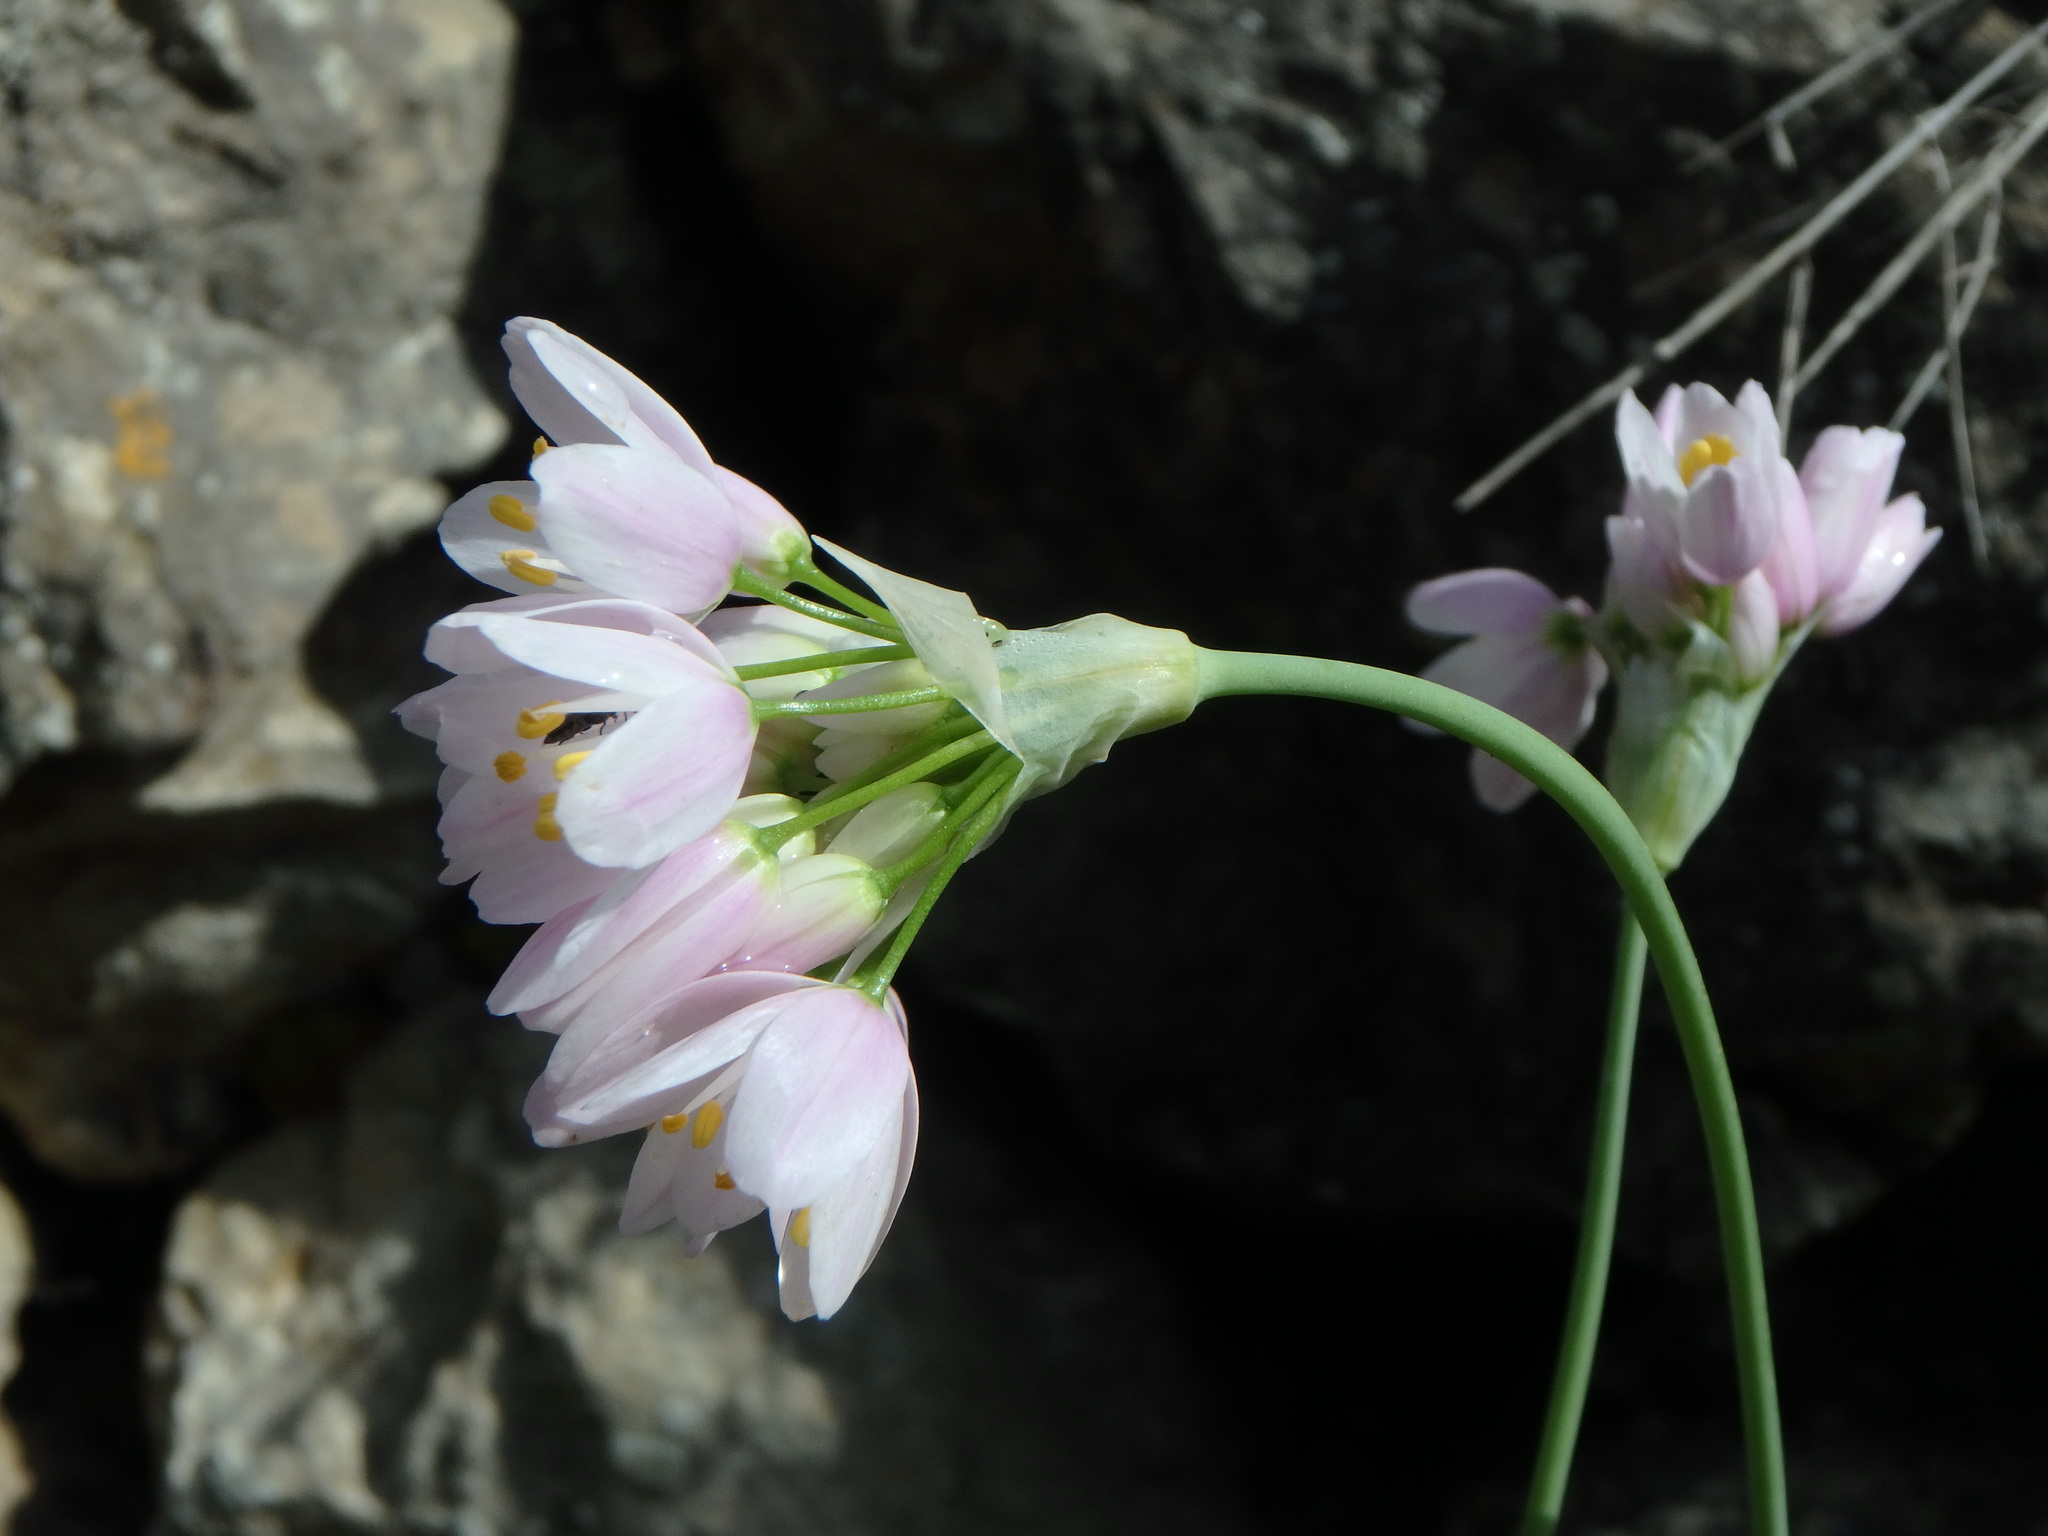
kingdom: Plantae
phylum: Tracheophyta
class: Liliopsida
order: Asparagales
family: Amaryllidaceae
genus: Allium
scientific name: Allium roseum
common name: Rosy garlic
